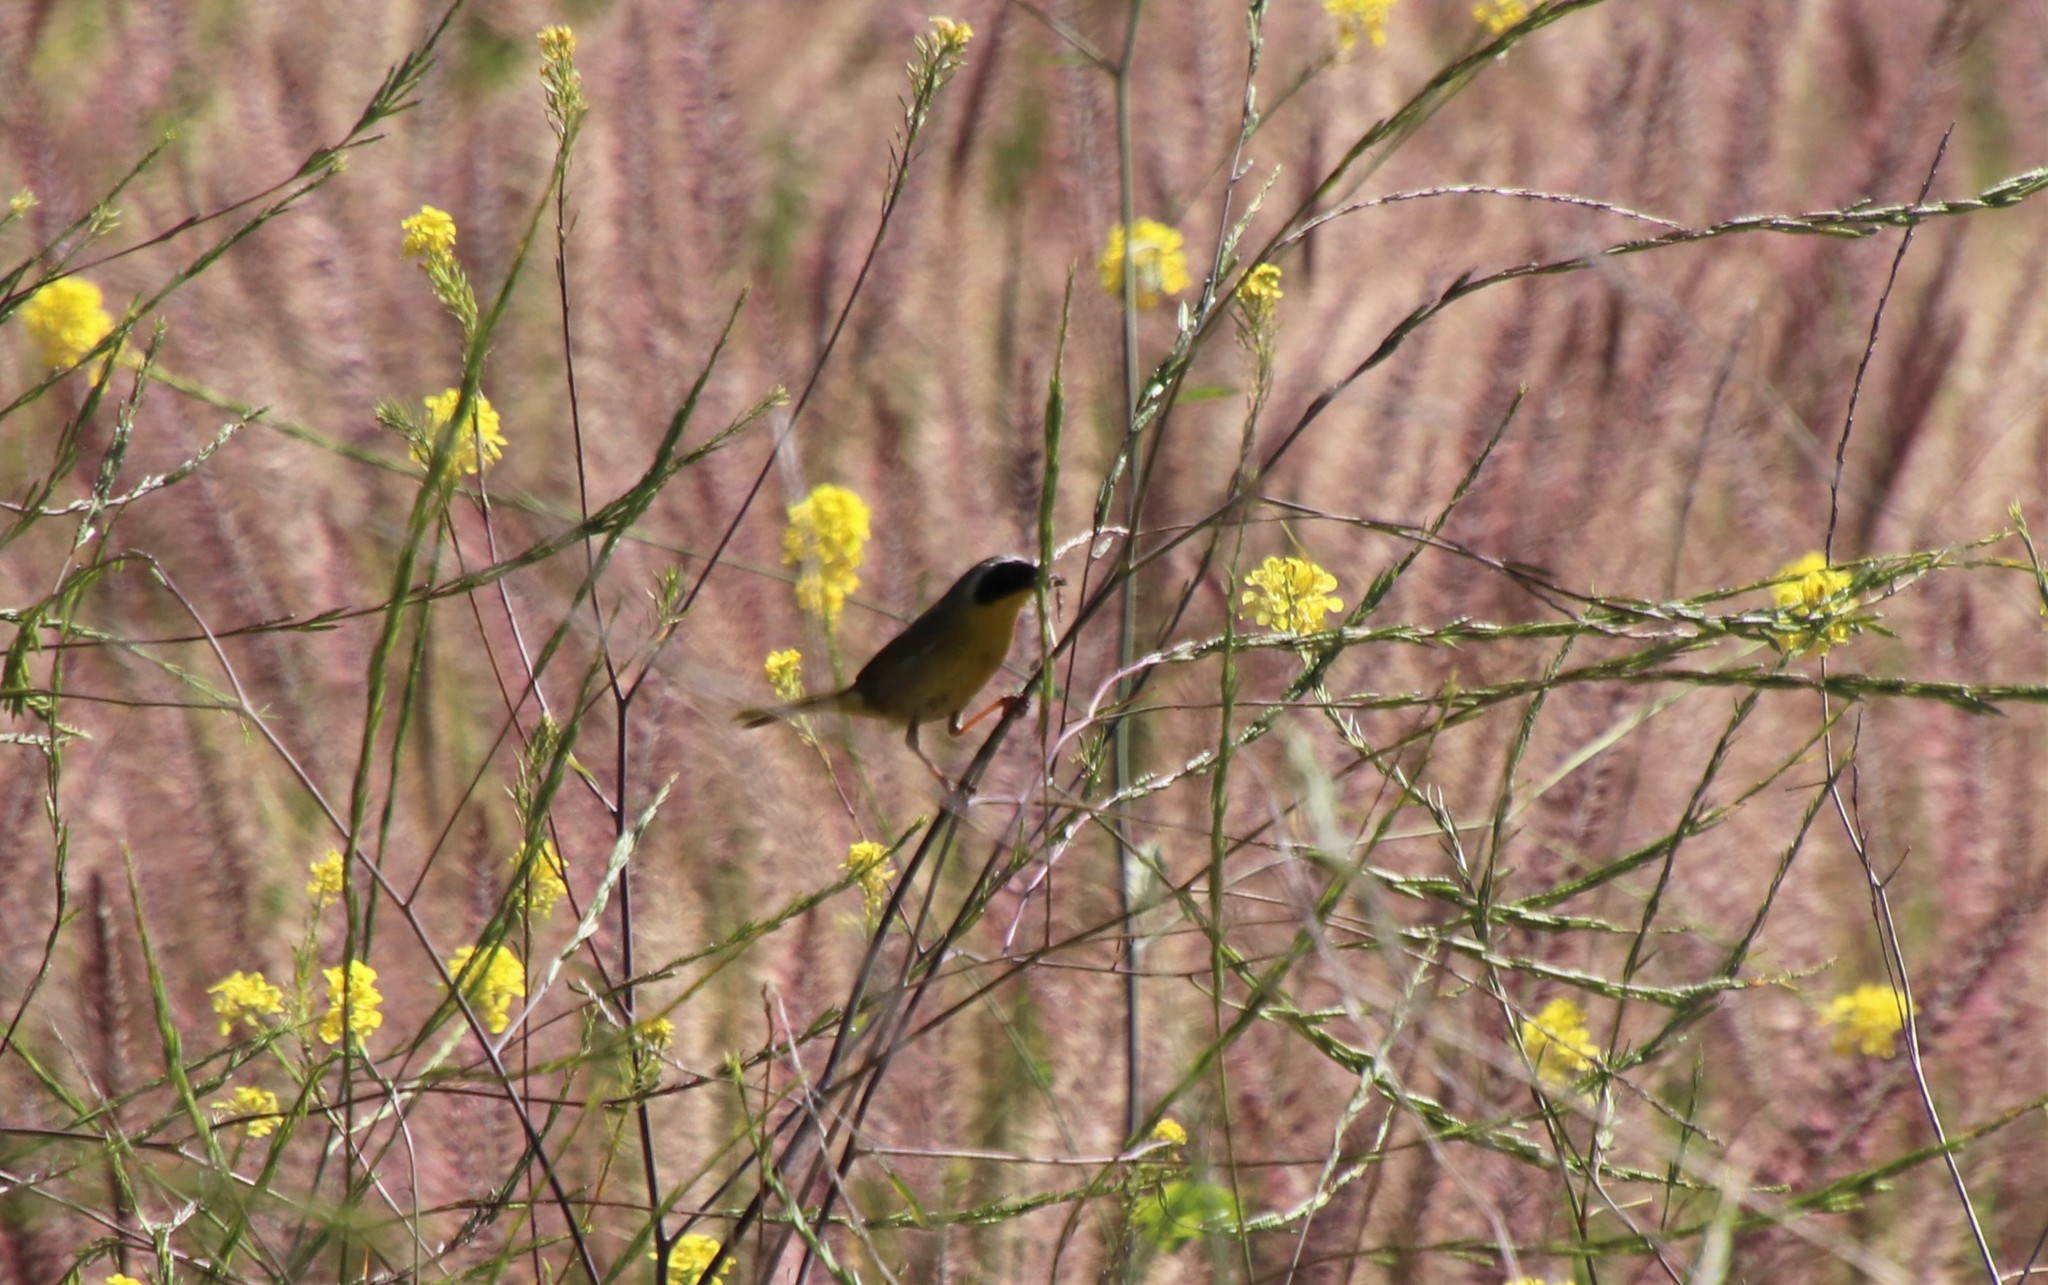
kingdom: Animalia
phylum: Chordata
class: Aves
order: Passeriformes
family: Parulidae
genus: Geothlypis
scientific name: Geothlypis trichas
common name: Common yellowthroat
